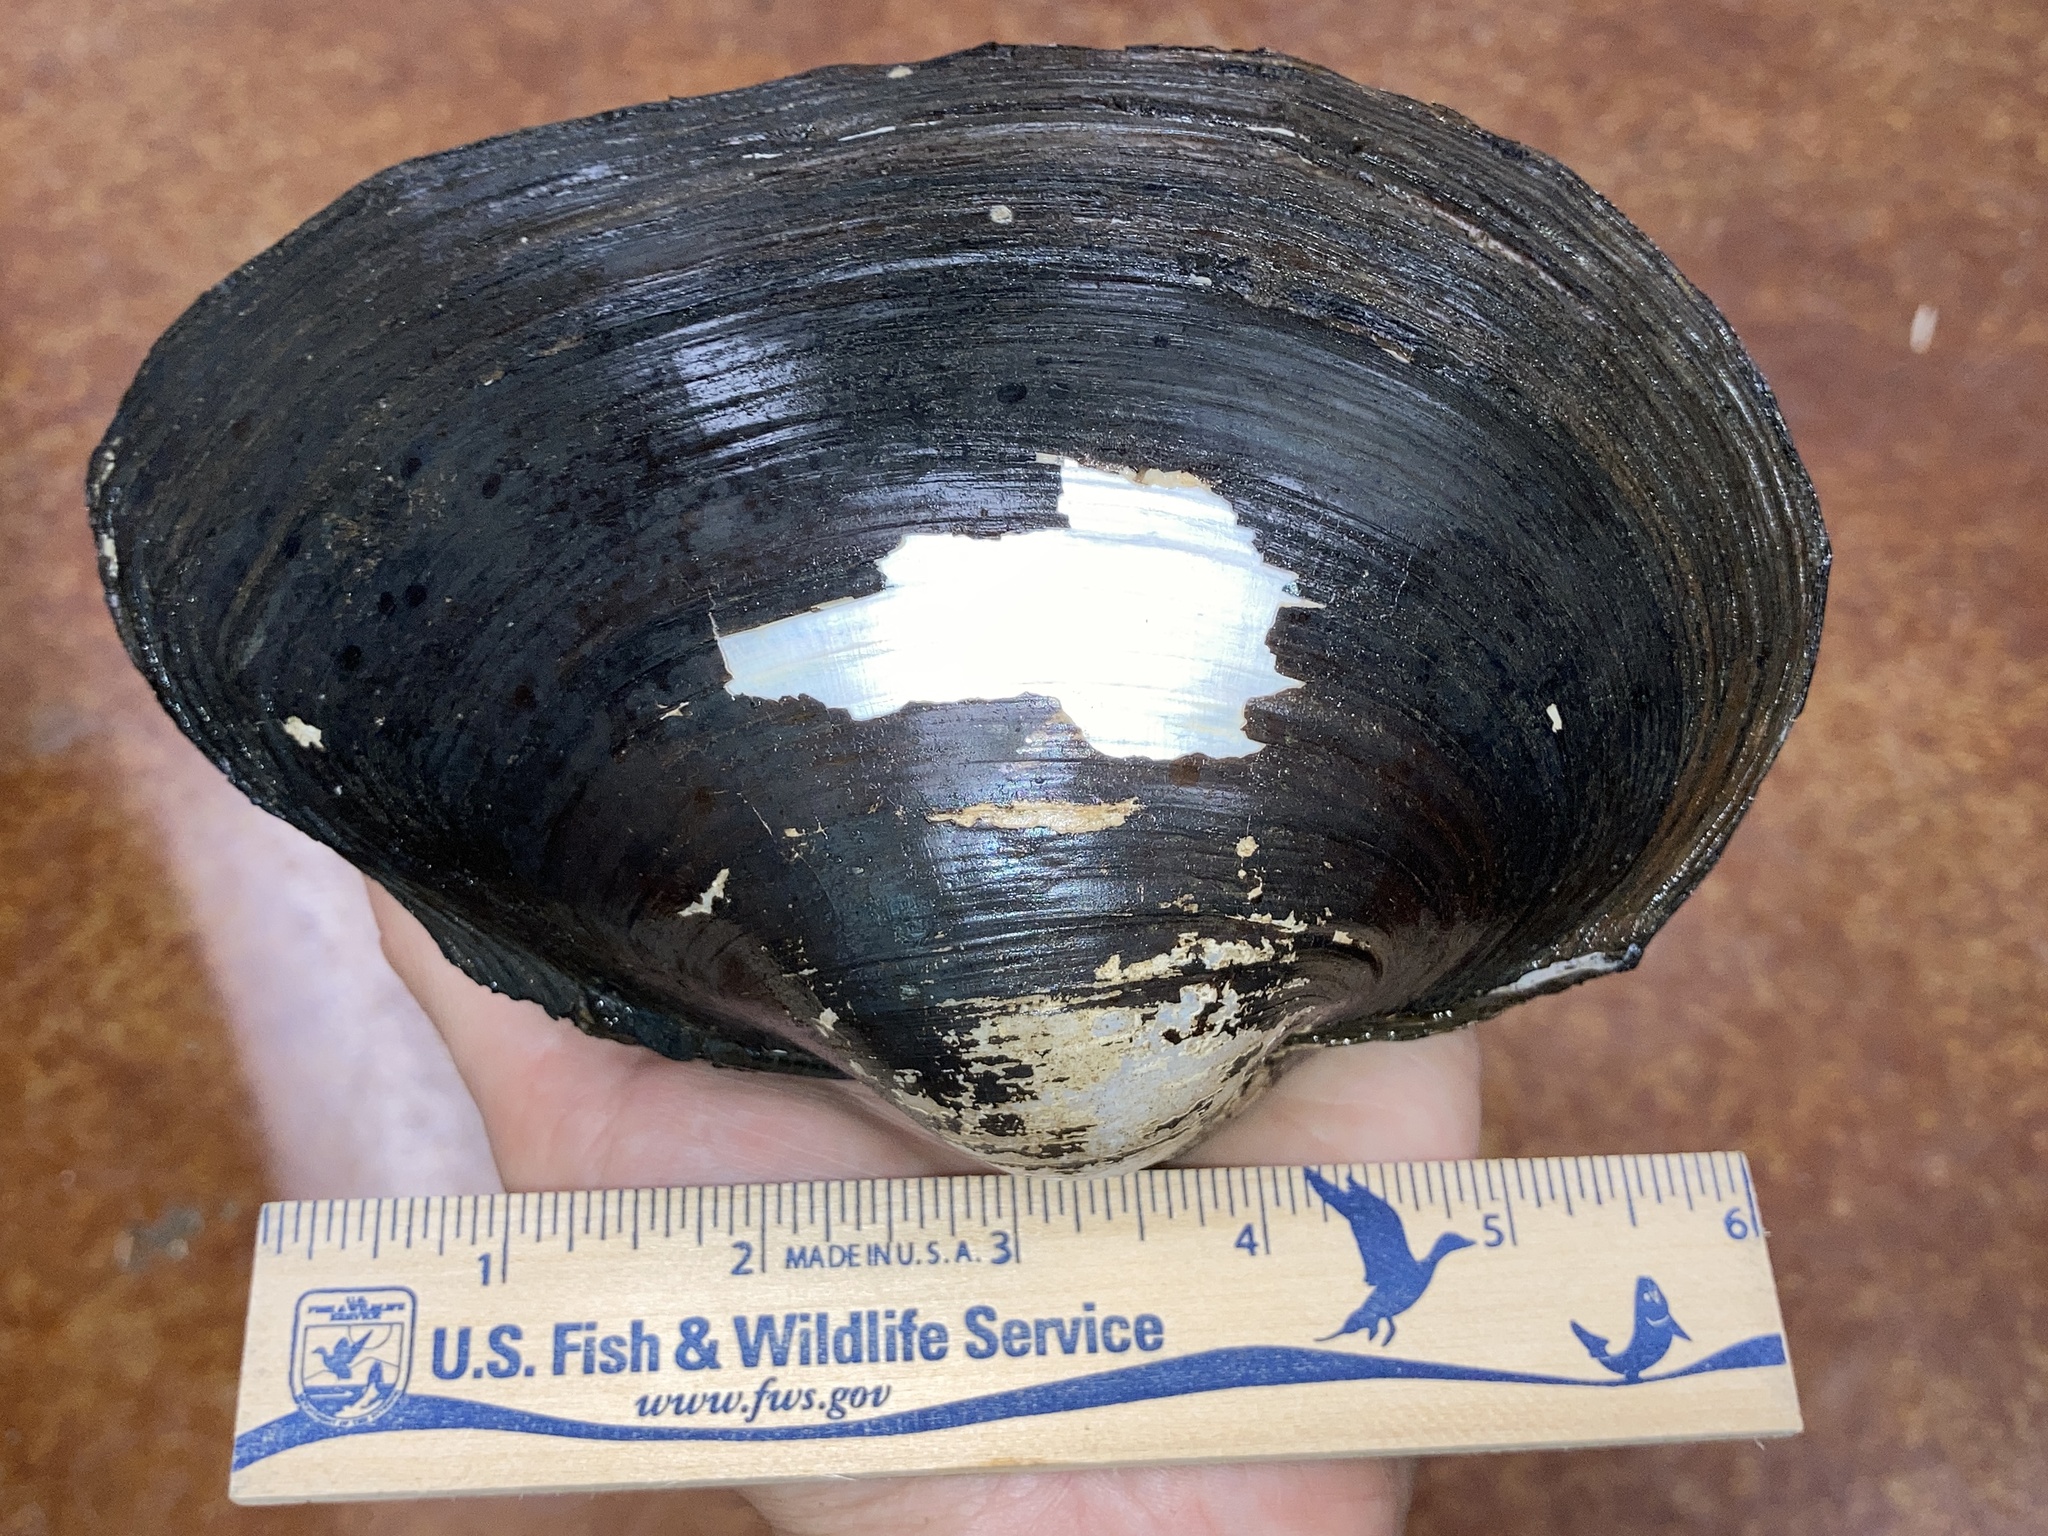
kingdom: Animalia
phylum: Mollusca
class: Bivalvia
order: Unionida
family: Unionidae
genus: Pyganodon
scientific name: Pyganodon grandis
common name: Giant floater
